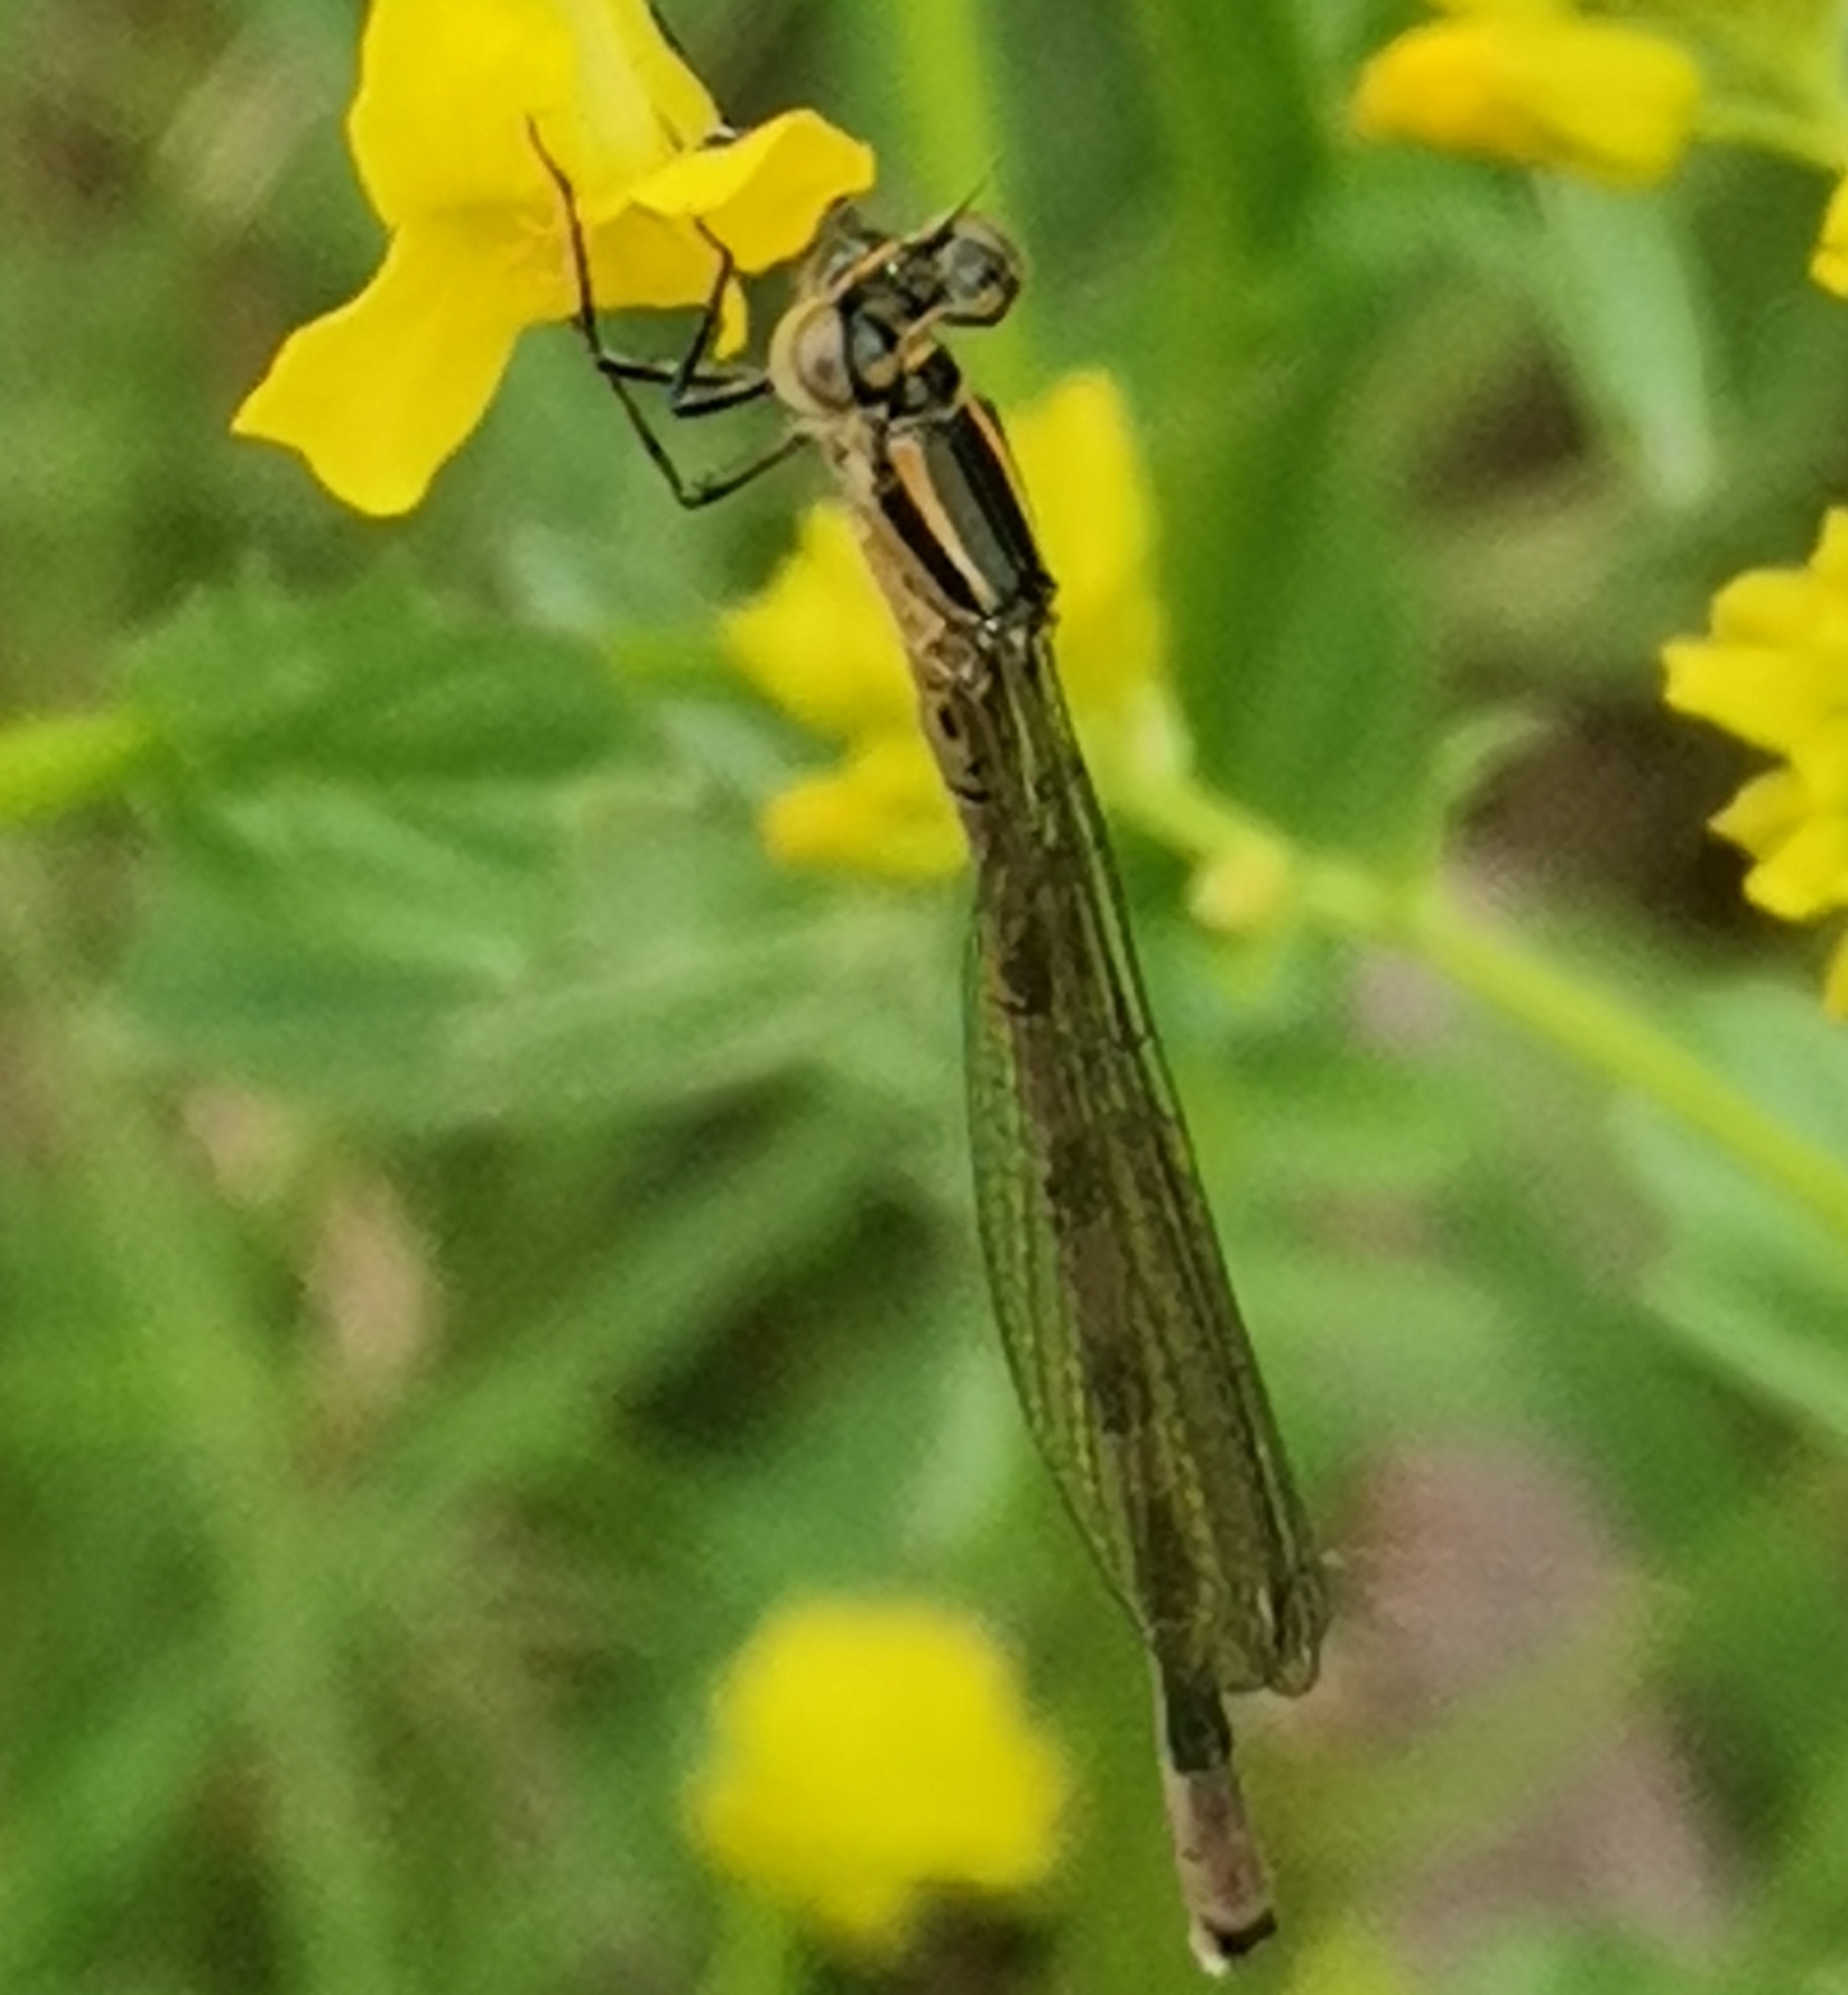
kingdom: Animalia
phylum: Arthropoda
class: Insecta
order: Odonata
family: Coenagrionidae
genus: Coenagrion
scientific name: Coenagrion hastulatum
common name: Spearhead bluet
